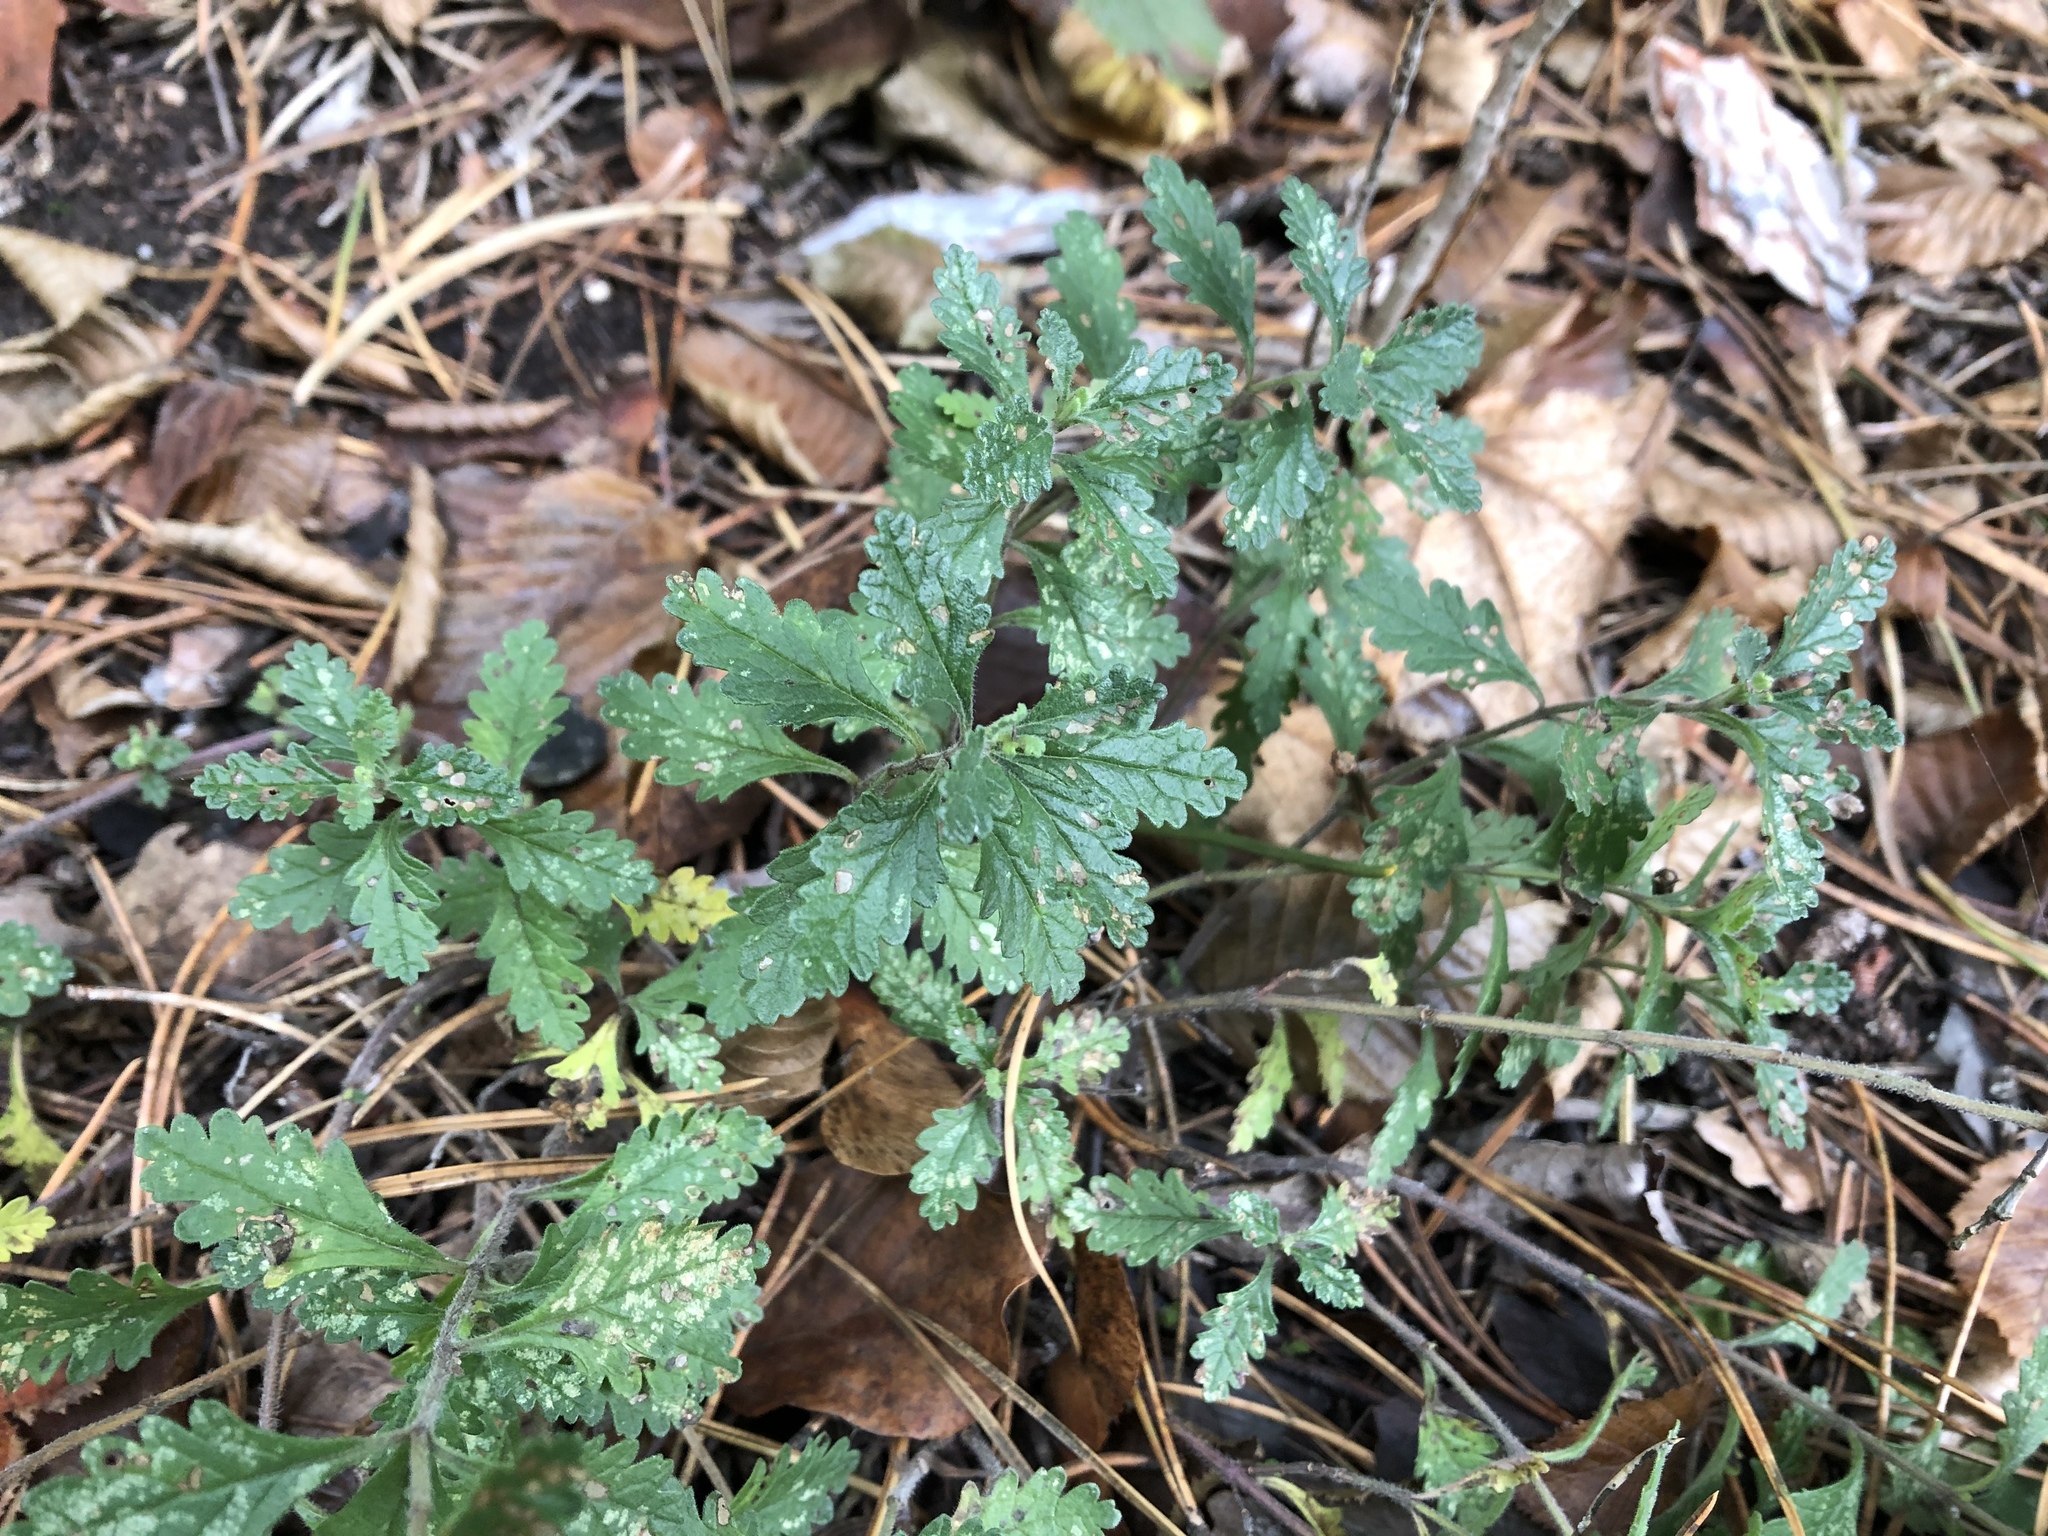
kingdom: Plantae
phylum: Tracheophyta
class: Magnoliopsida
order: Lamiales
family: Lamiaceae
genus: Teucrium
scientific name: Teucrium chamaedrys
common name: Wall germander
